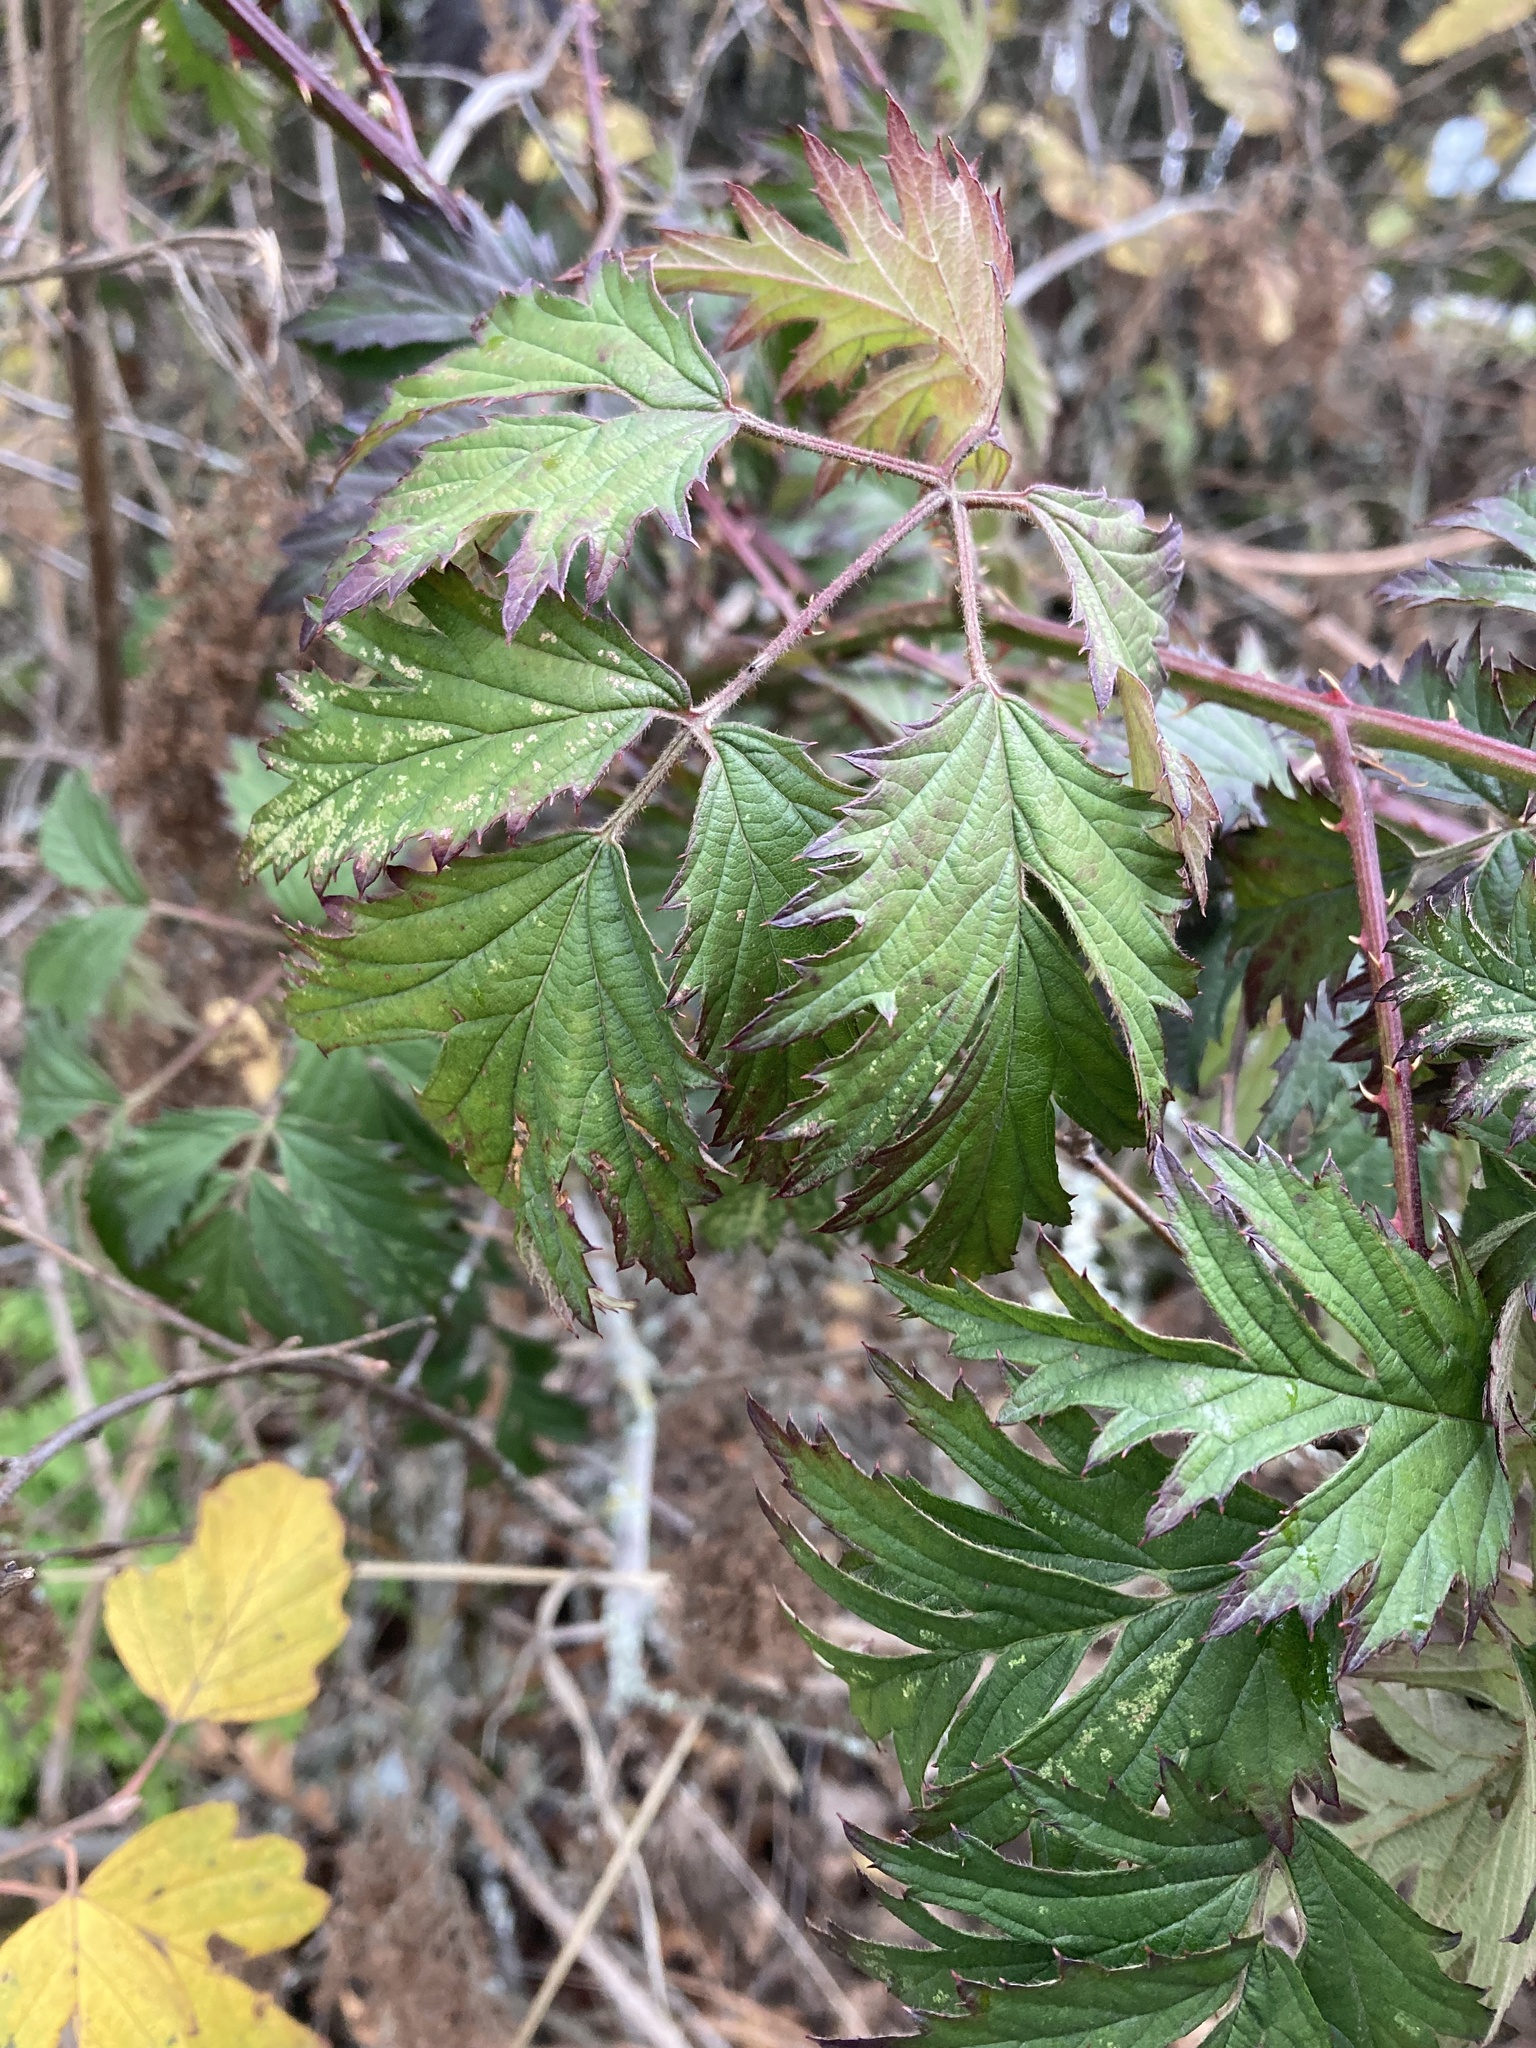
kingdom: Plantae
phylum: Tracheophyta
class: Magnoliopsida
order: Rosales
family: Rosaceae
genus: Rubus
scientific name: Rubus laciniatus
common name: Evergreen blackberry
